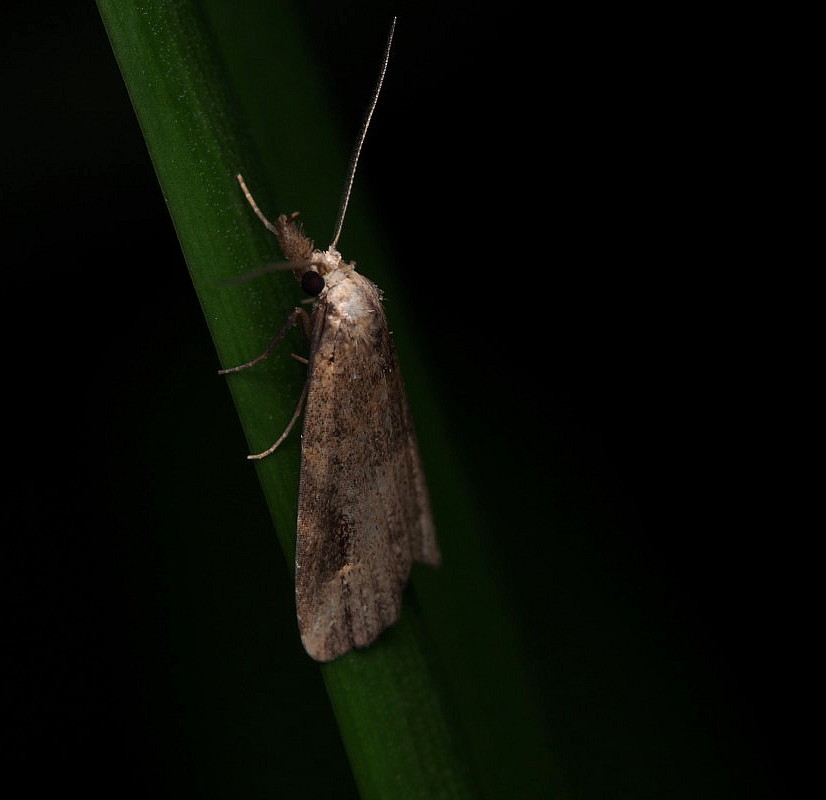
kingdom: Animalia
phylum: Arthropoda
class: Insecta
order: Lepidoptera
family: Erebidae
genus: Schrankia
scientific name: Schrankia costaestrigalis
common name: Pinion-streaked snout
